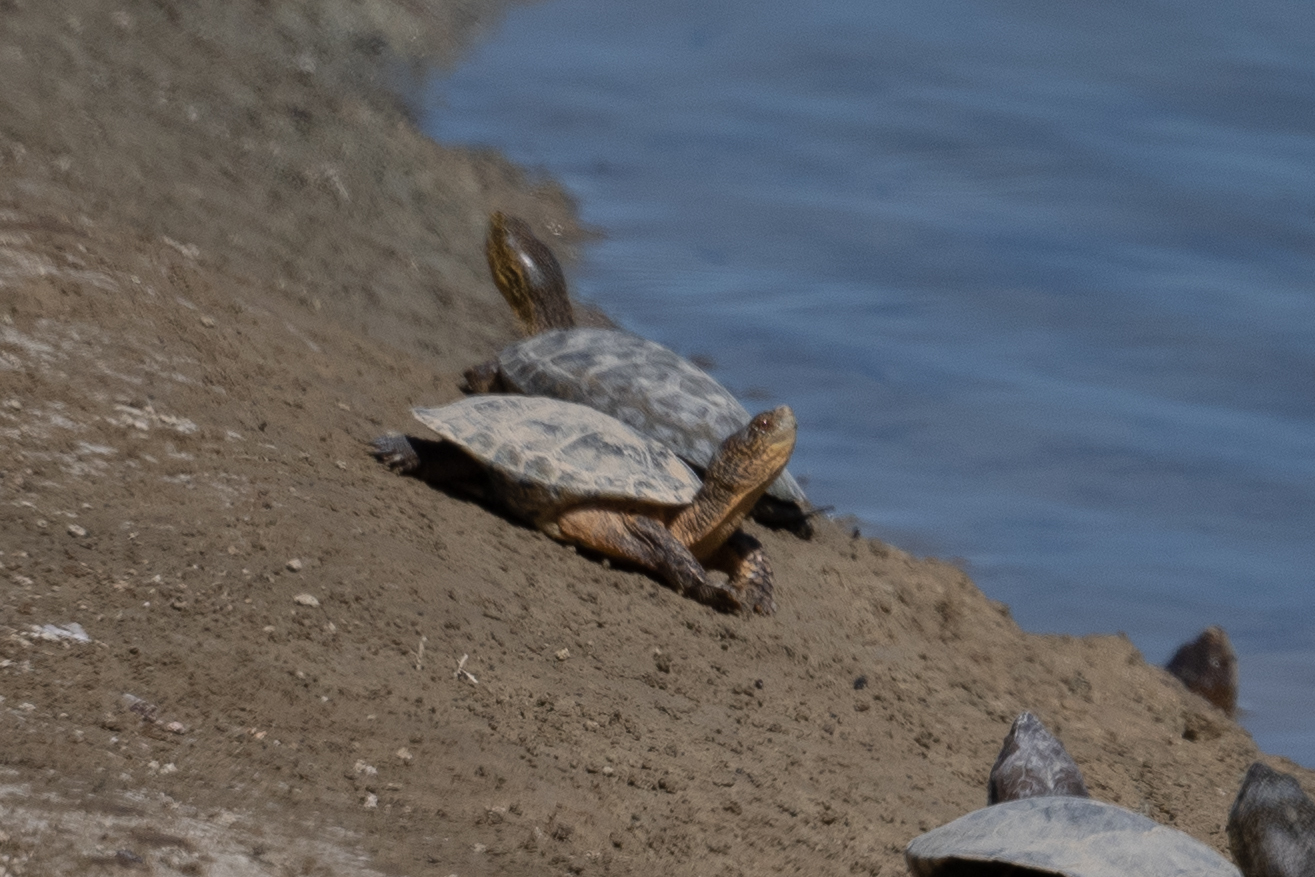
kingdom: Animalia
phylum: Chordata
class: Testudines
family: Emydidae
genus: Actinemys
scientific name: Actinemys marmorata
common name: Western pond turtle
